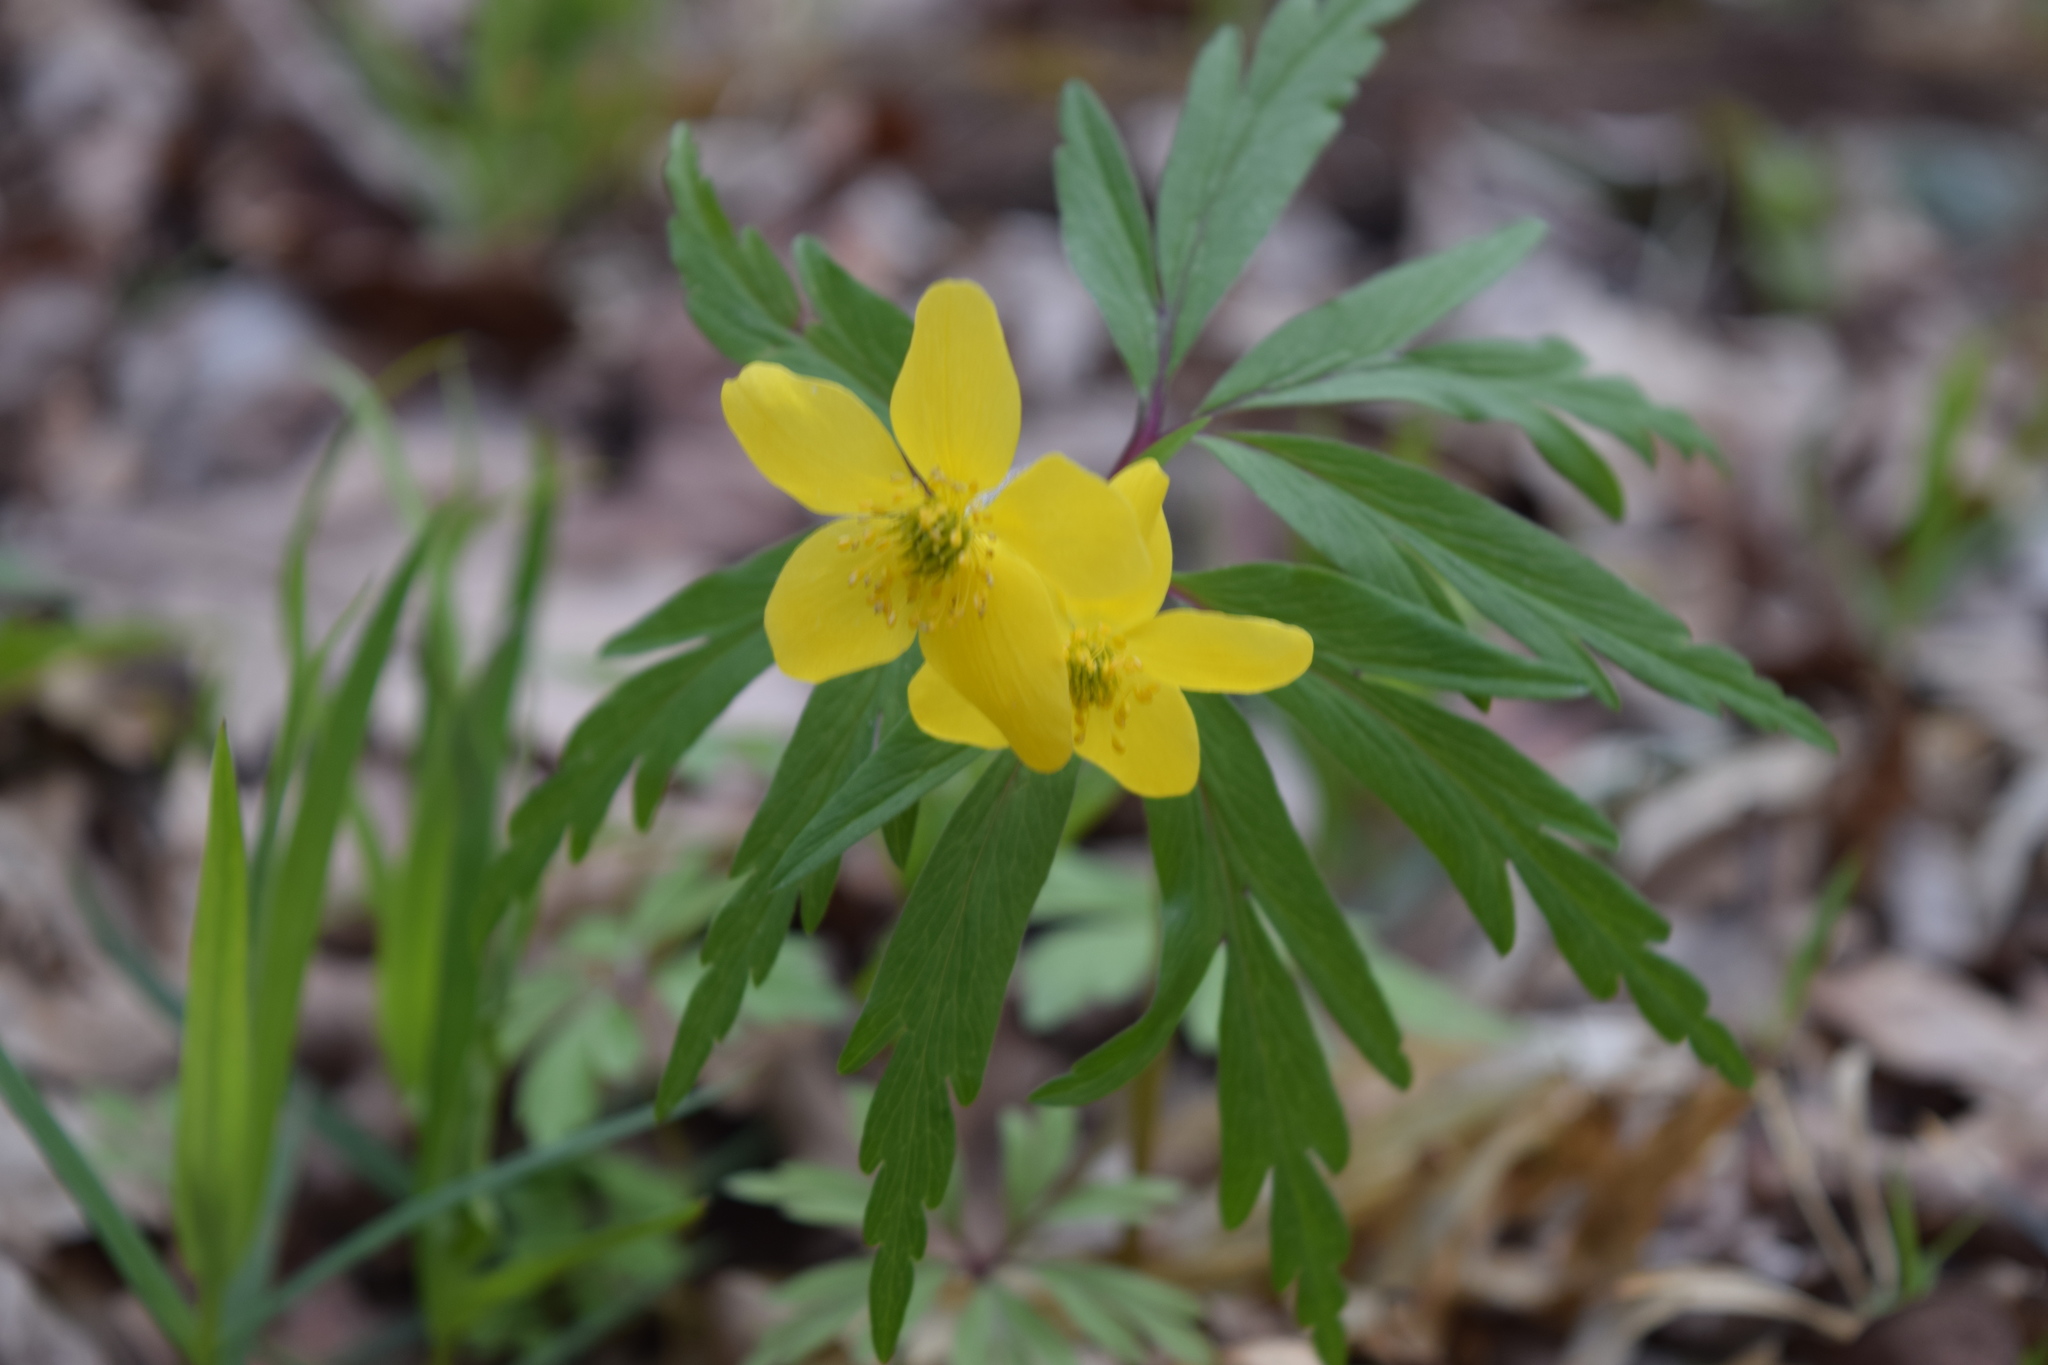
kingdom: Plantae
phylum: Tracheophyta
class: Magnoliopsida
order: Ranunculales
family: Ranunculaceae
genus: Anemone
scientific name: Anemone ranunculoides
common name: Yellow anemone
